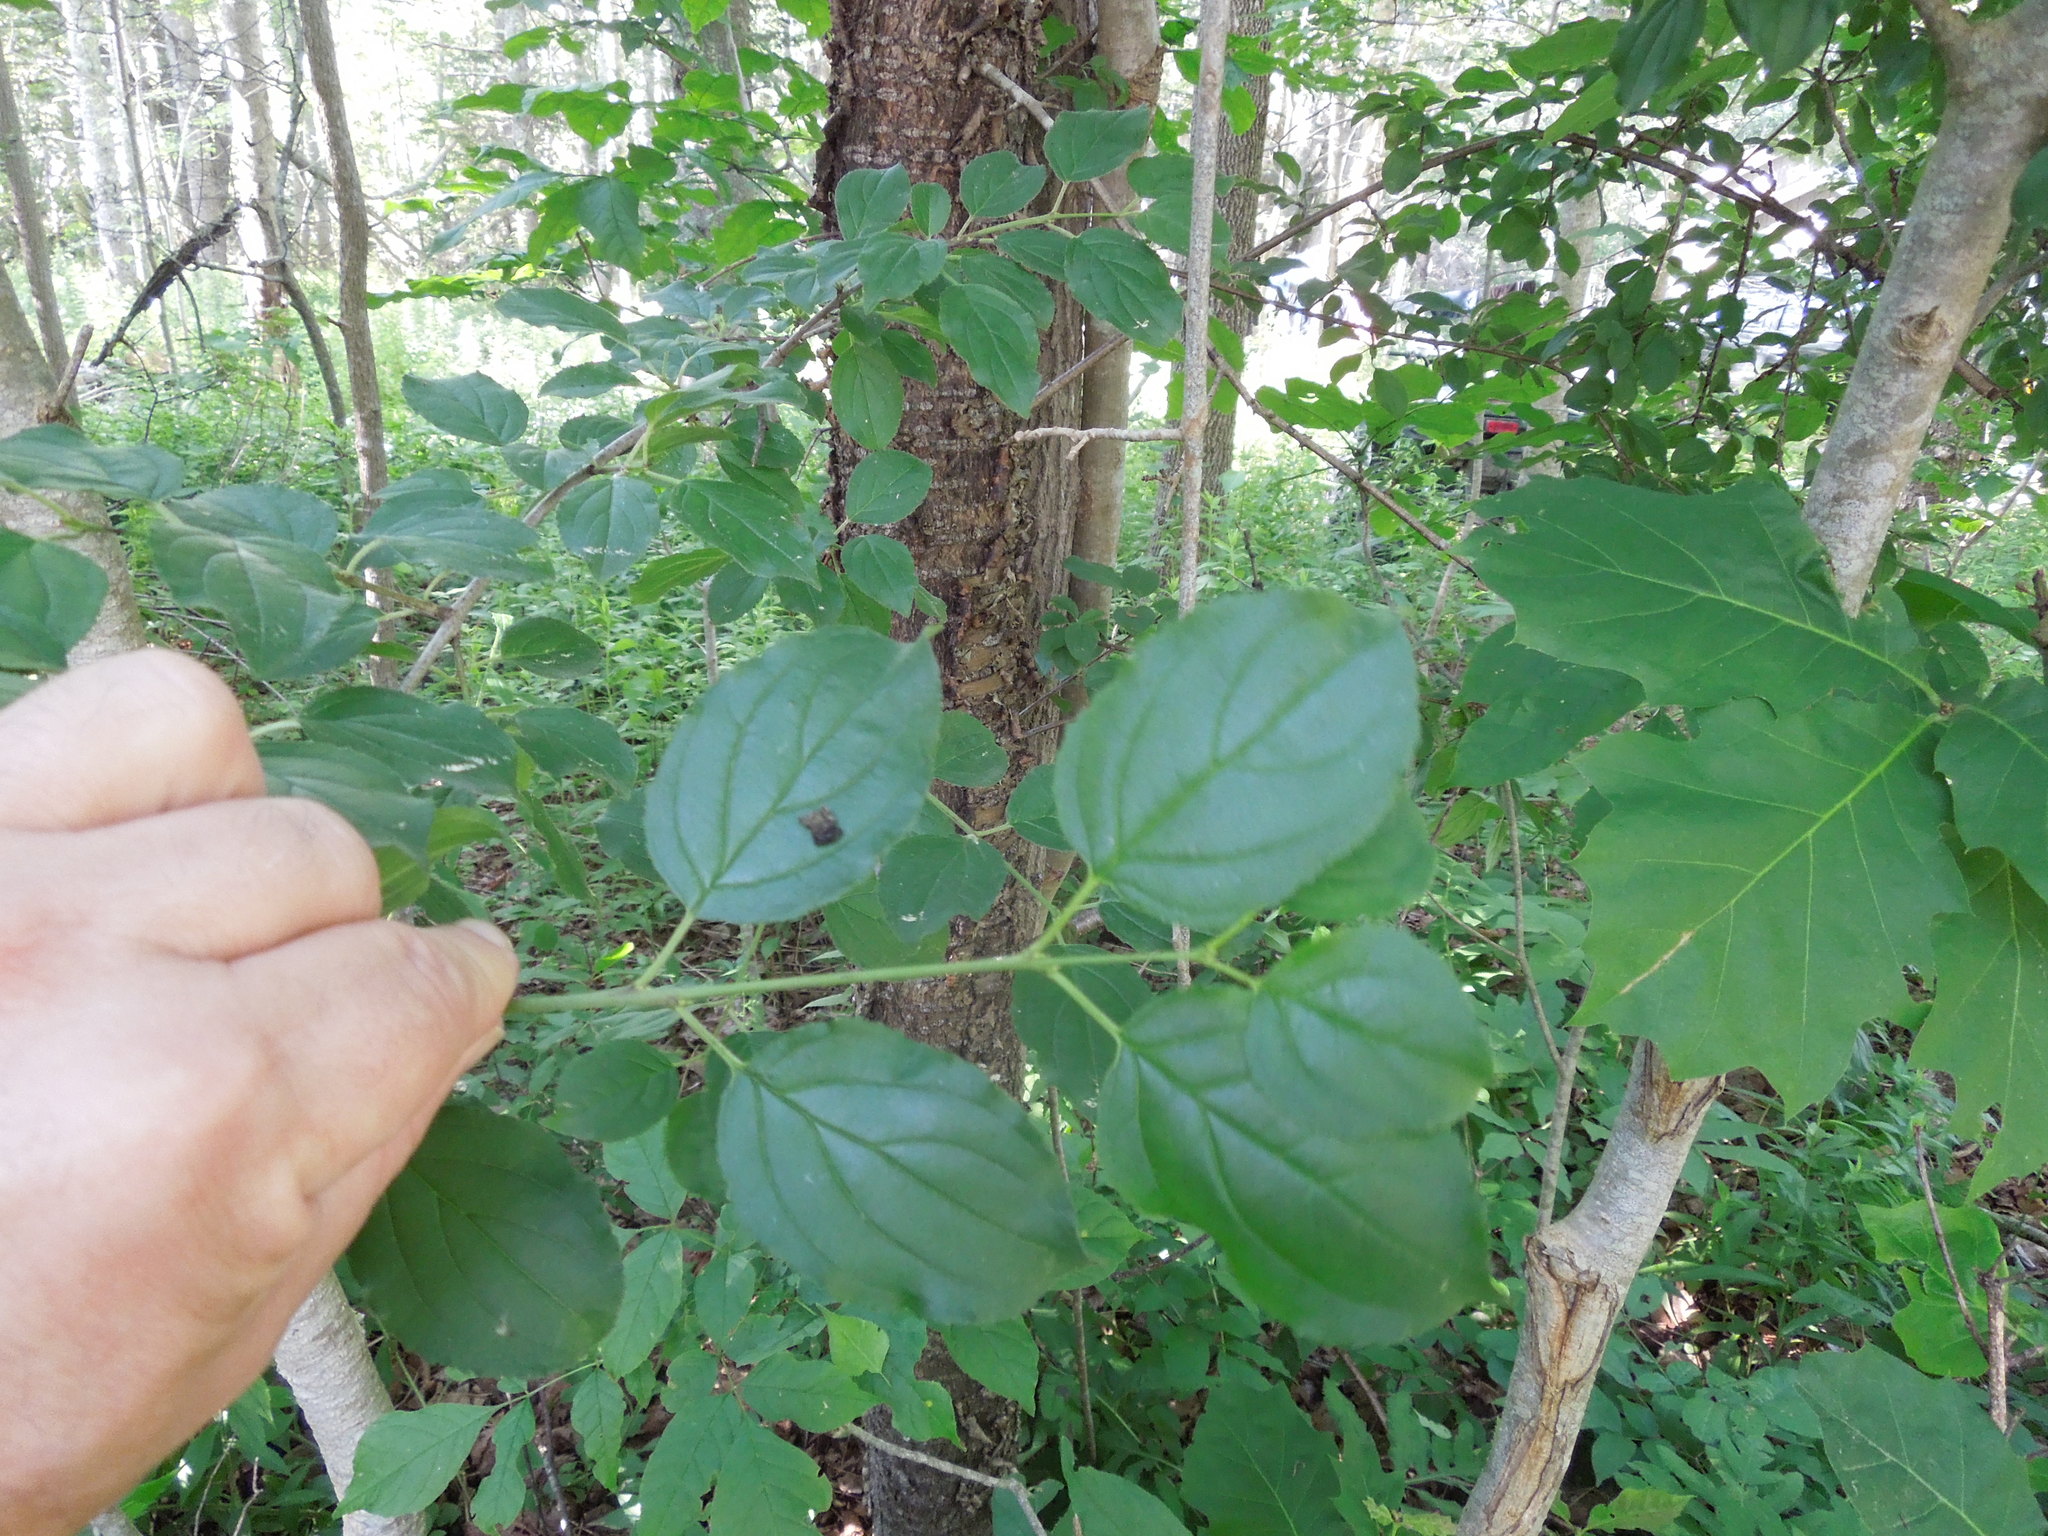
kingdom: Plantae
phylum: Tracheophyta
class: Magnoliopsida
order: Rosales
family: Rhamnaceae
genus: Rhamnus
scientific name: Rhamnus cathartica
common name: Common buckthorn
